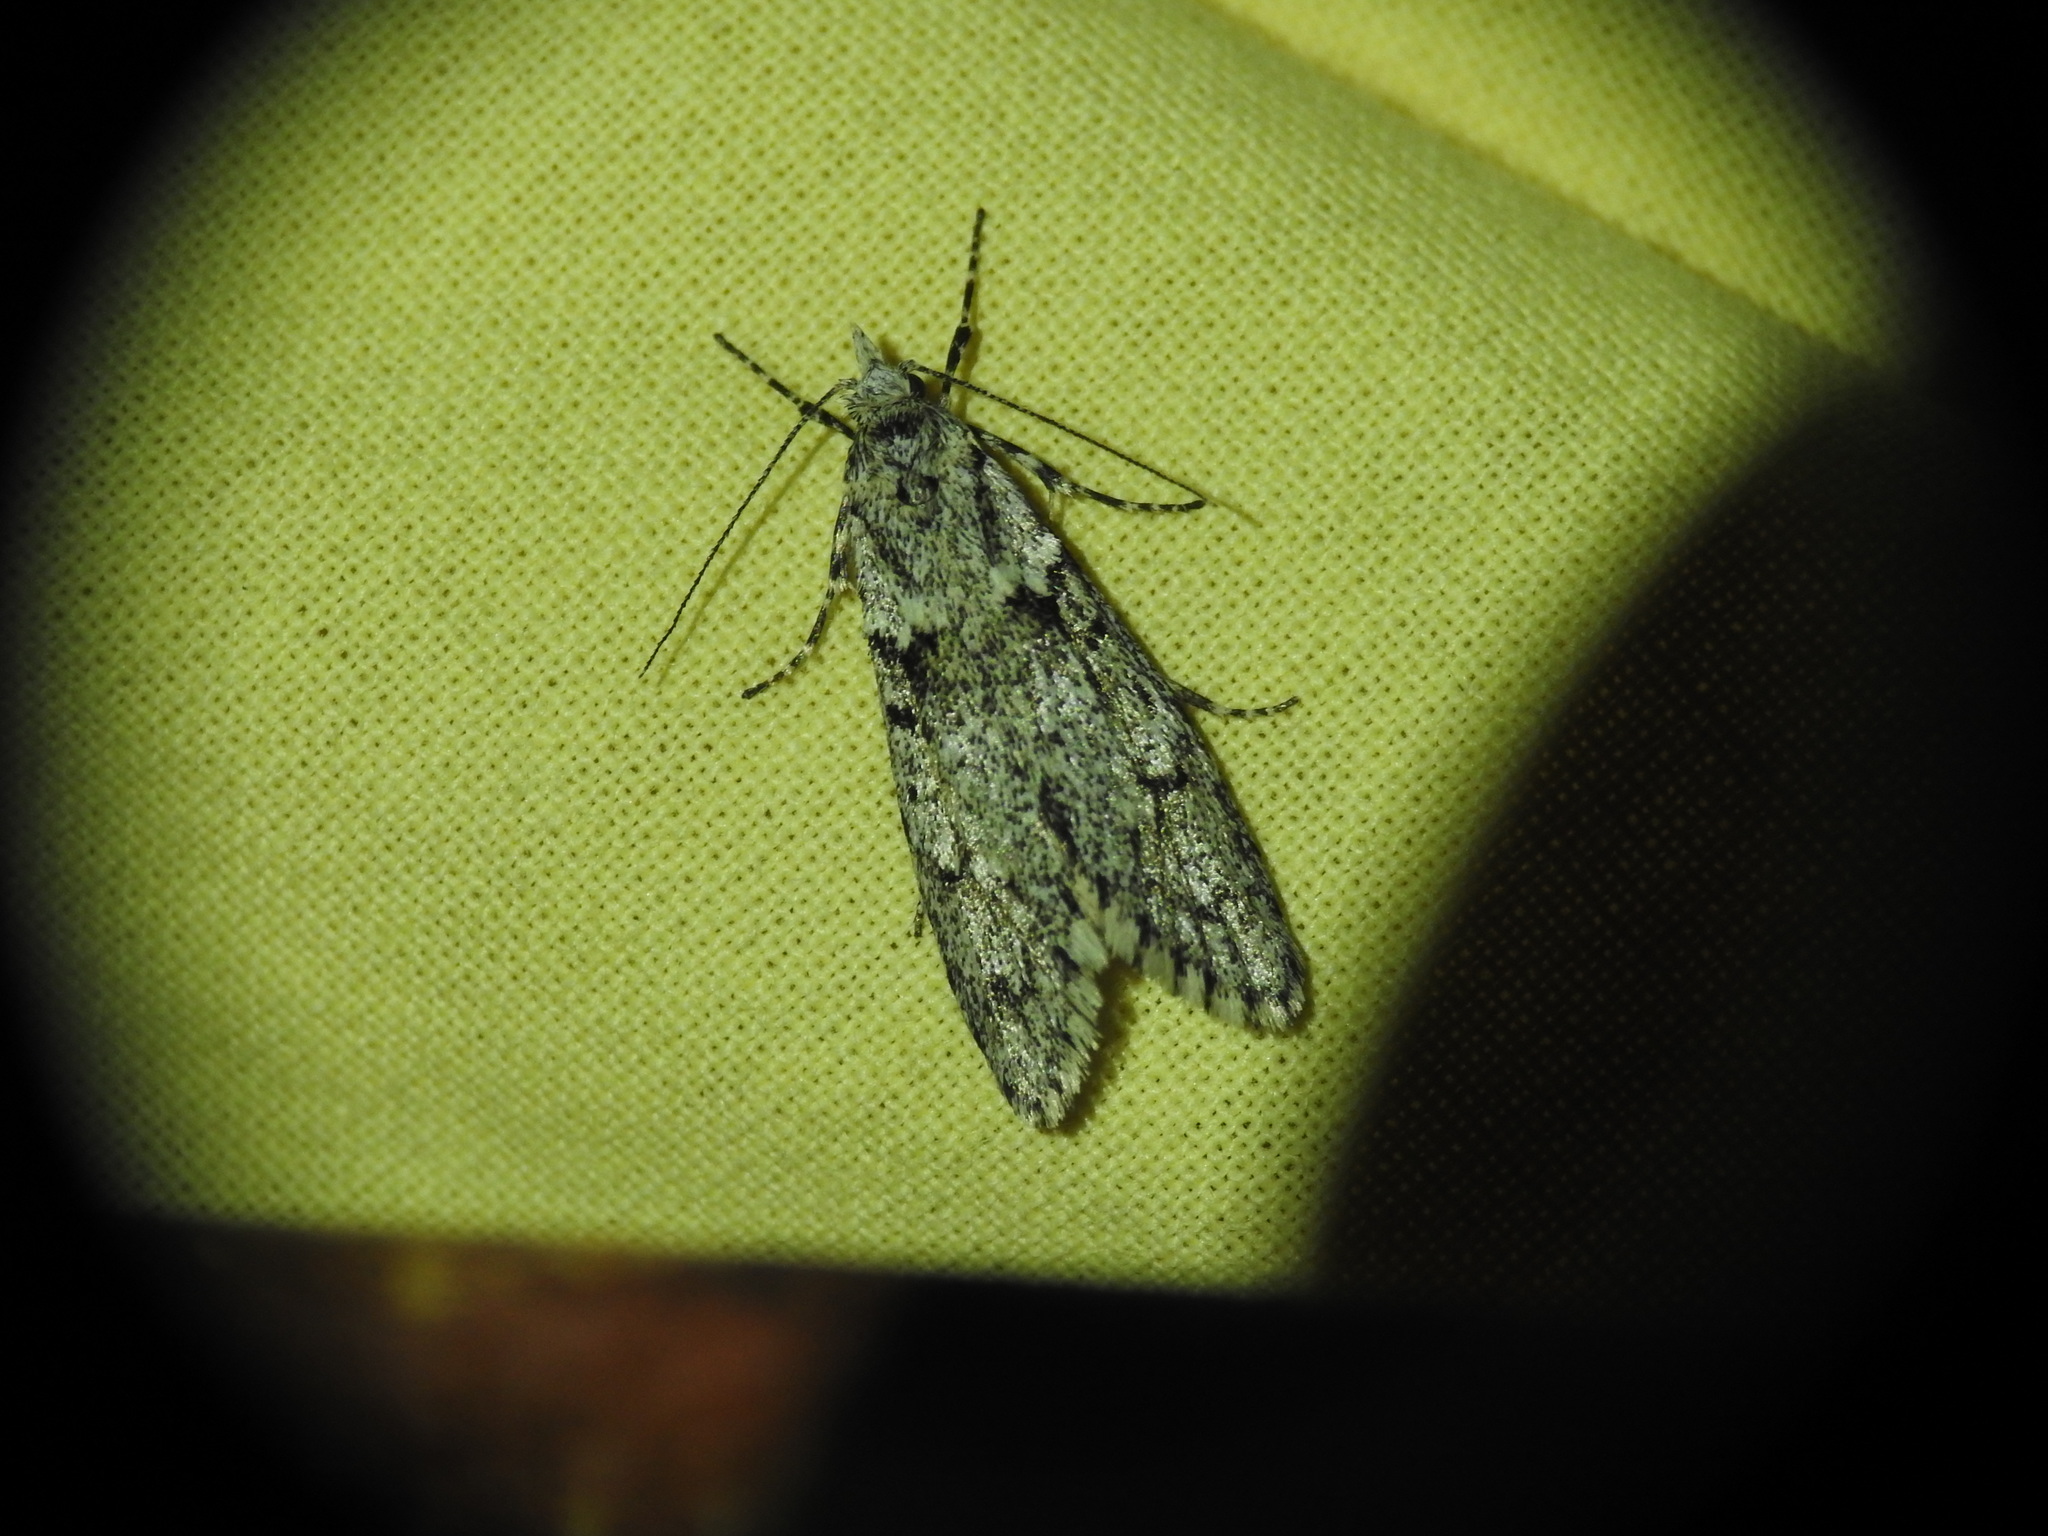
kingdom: Animalia
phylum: Arthropoda
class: Insecta
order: Lepidoptera
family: Lypusidae
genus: Diurnea
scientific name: Diurnea fagella
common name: March tubic
